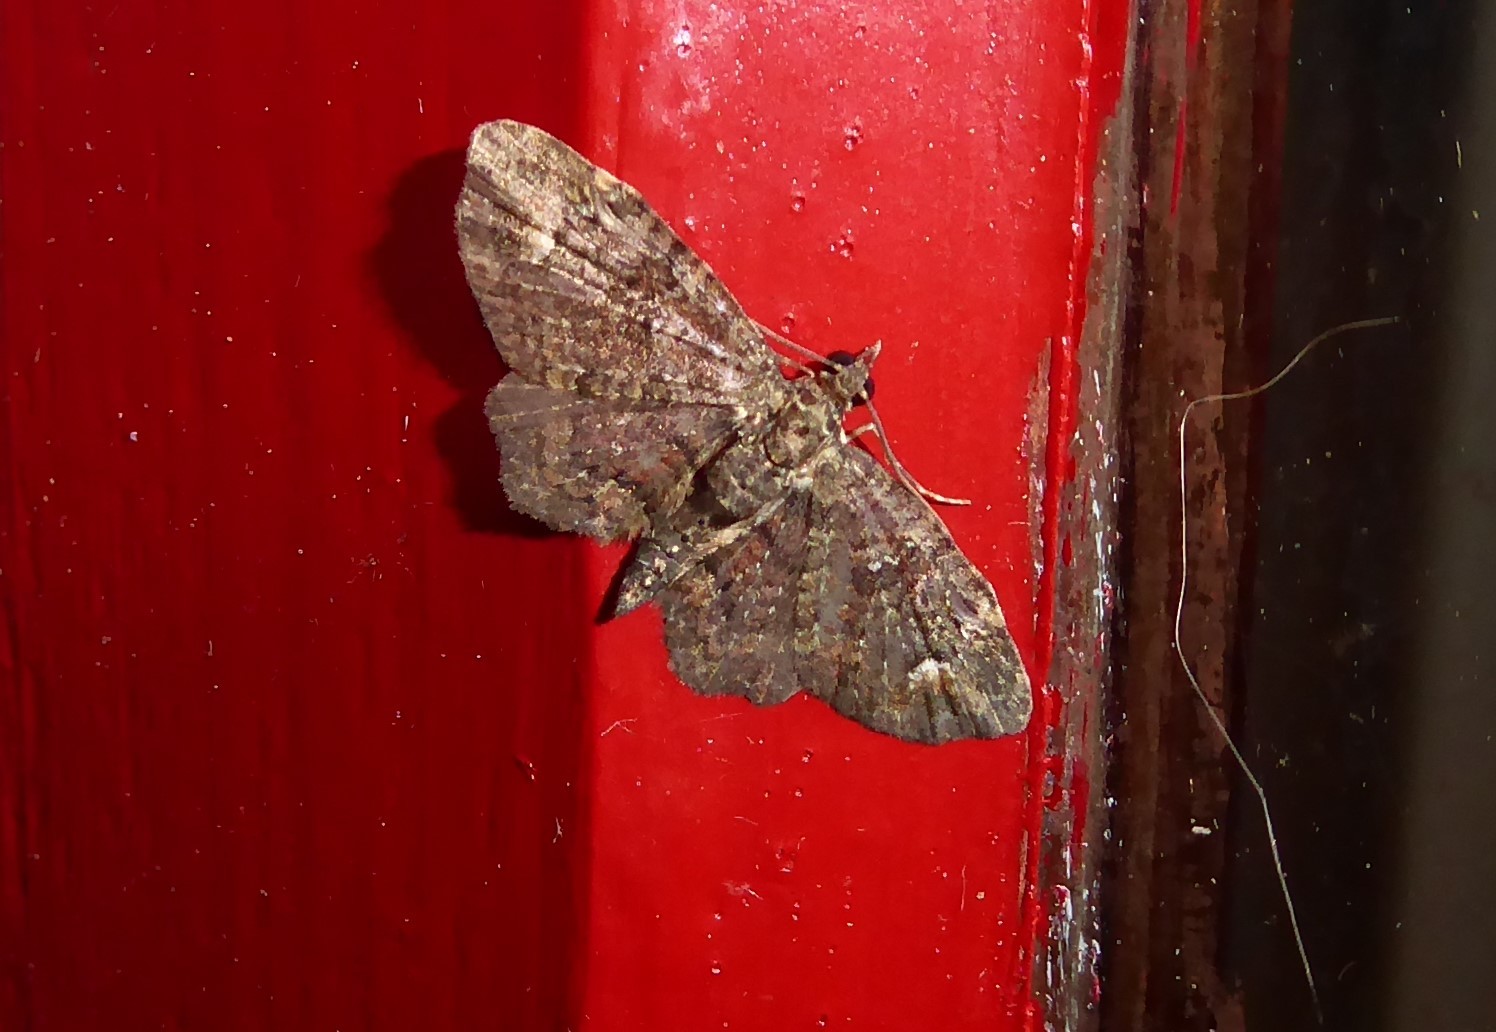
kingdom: Animalia
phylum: Arthropoda
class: Insecta
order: Lepidoptera
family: Geometridae
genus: Pasiphilodes
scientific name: Pasiphilodes testulata
